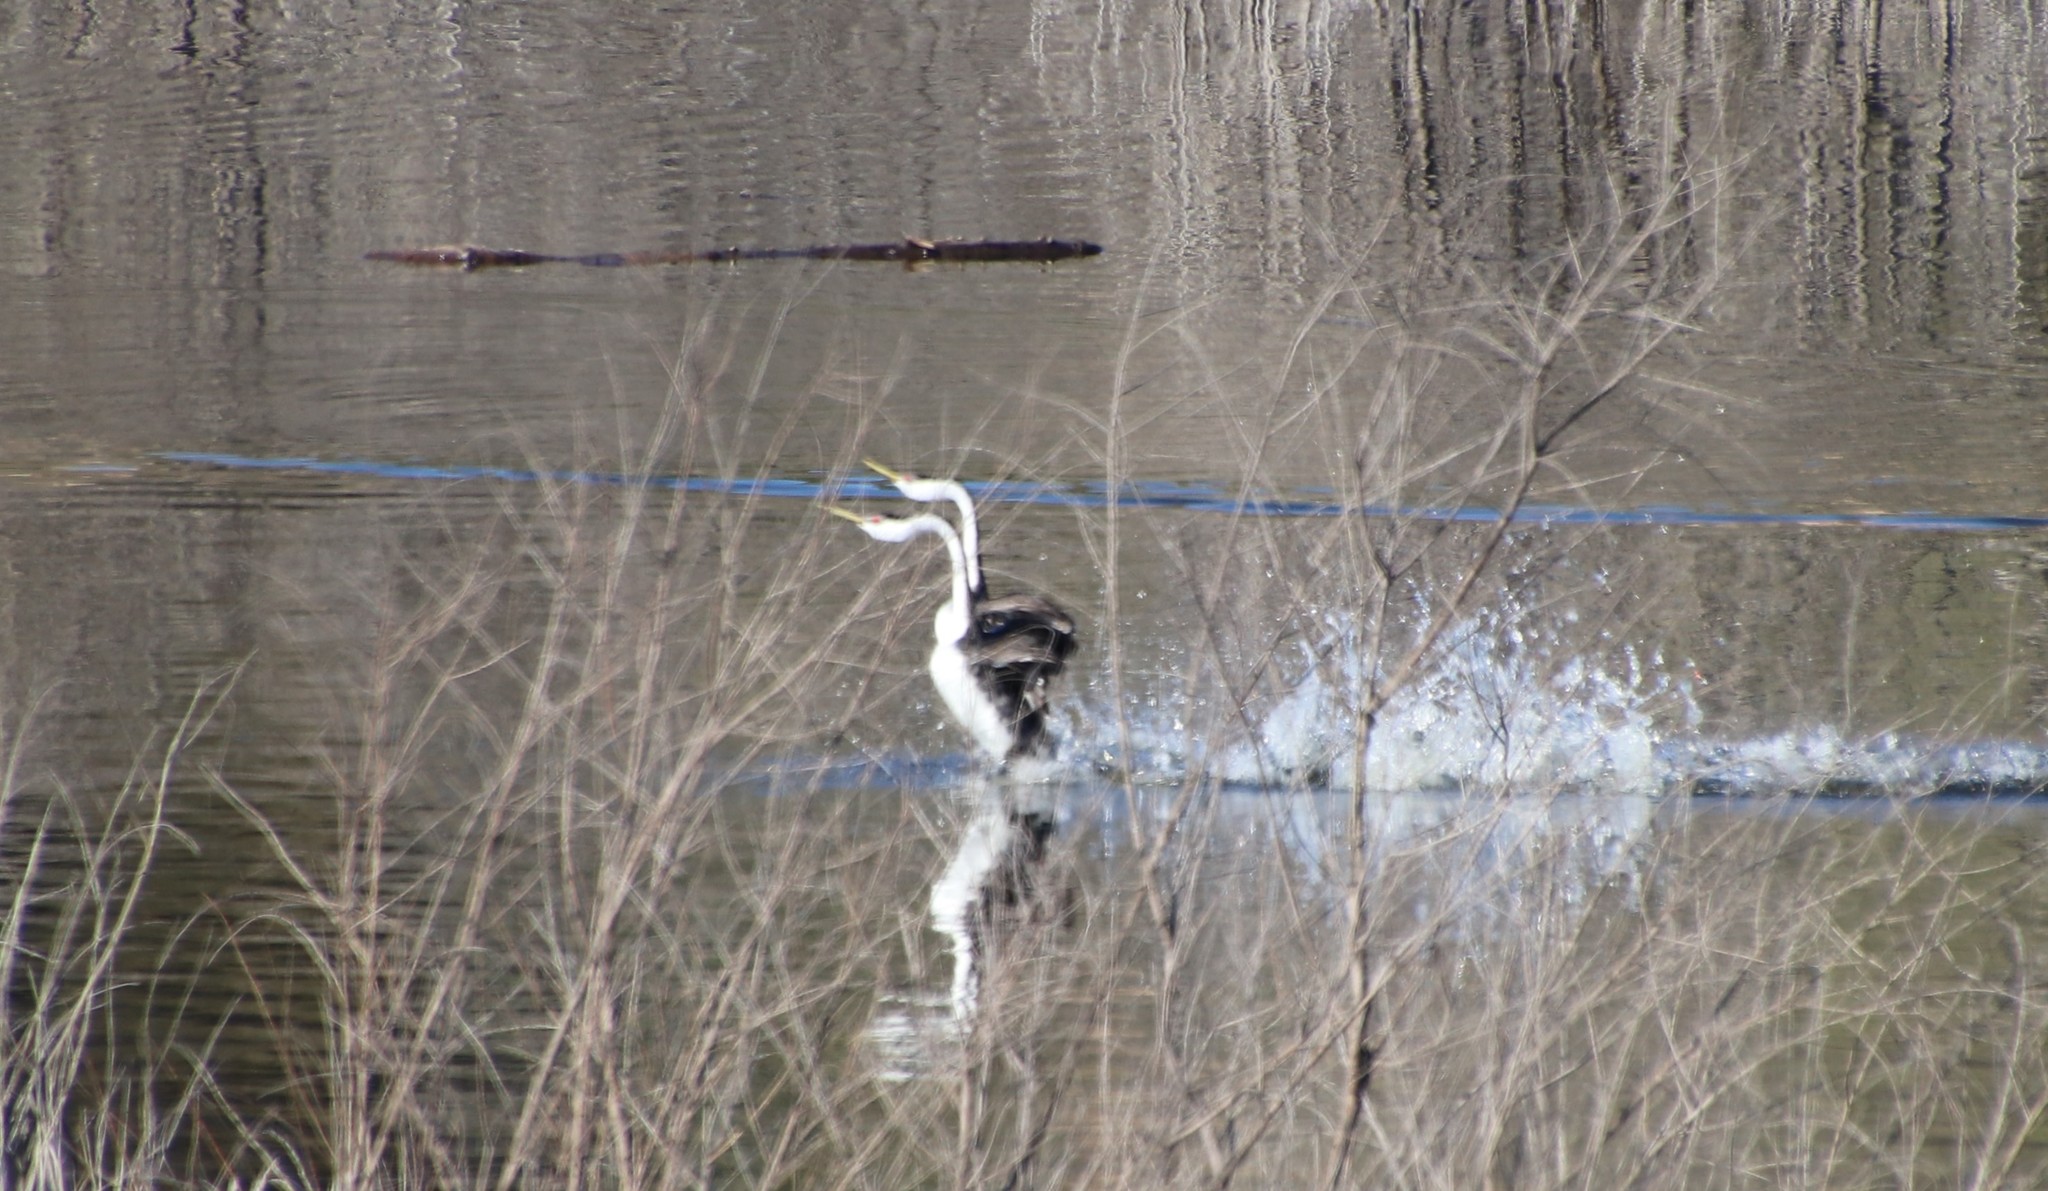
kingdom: Animalia
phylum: Chordata
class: Aves
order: Podicipediformes
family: Podicipedidae
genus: Aechmophorus
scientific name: Aechmophorus clarkii
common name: Clark's grebe
